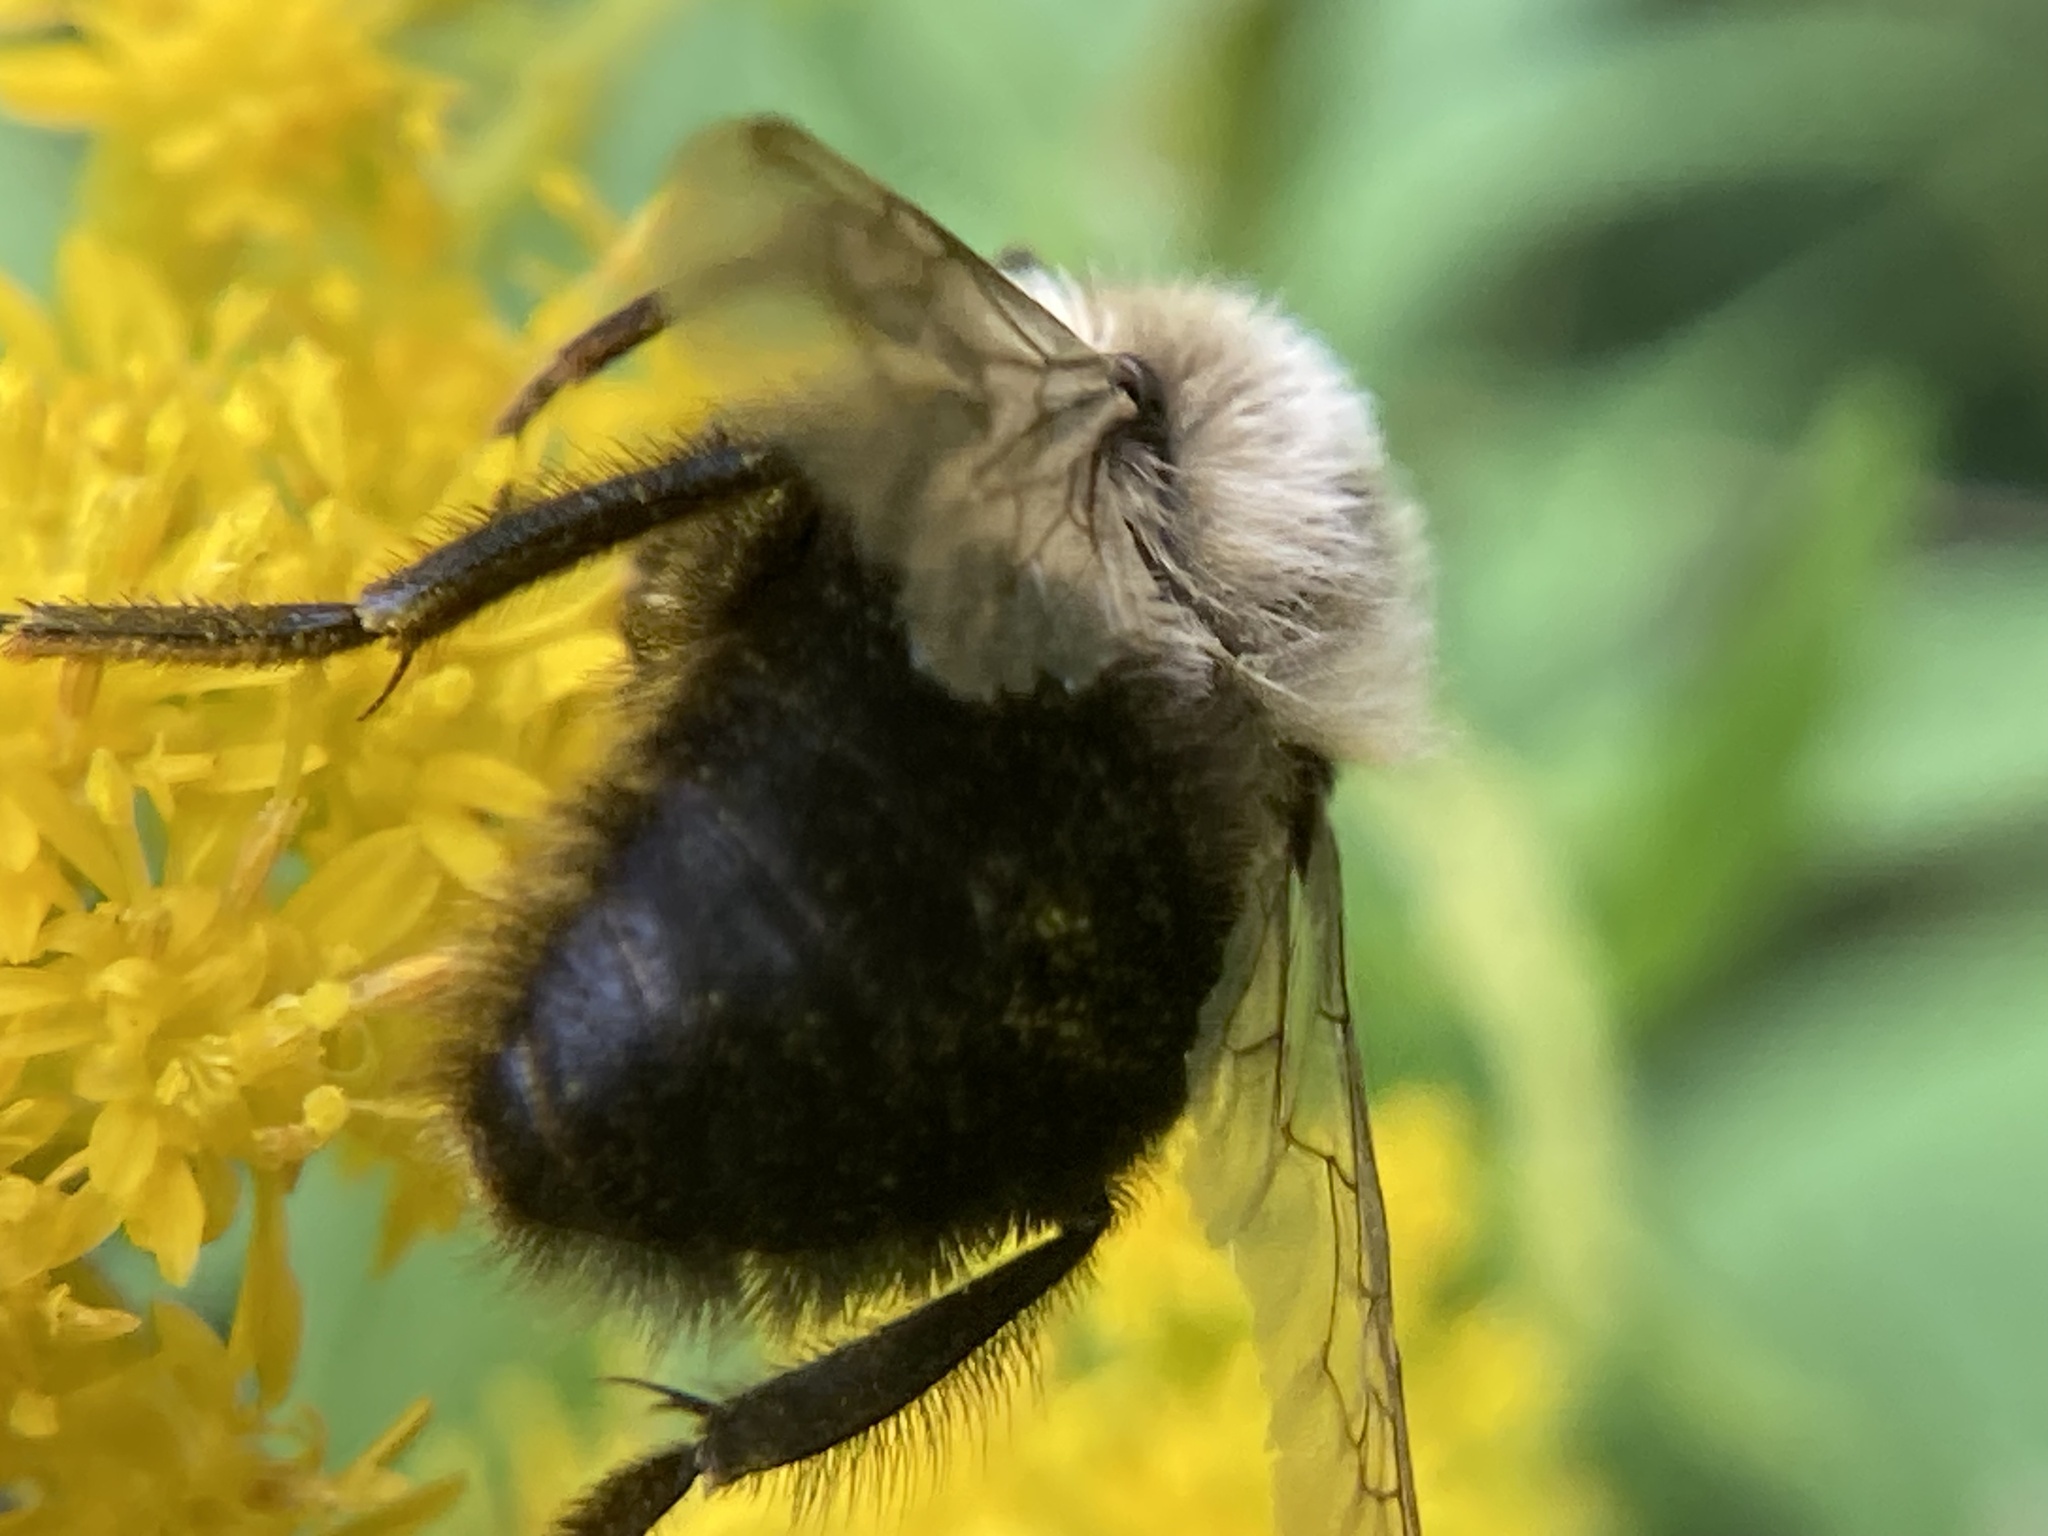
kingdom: Animalia
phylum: Arthropoda
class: Insecta
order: Hymenoptera
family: Apidae
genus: Bombus
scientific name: Bombus impatiens
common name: Common eastern bumble bee
